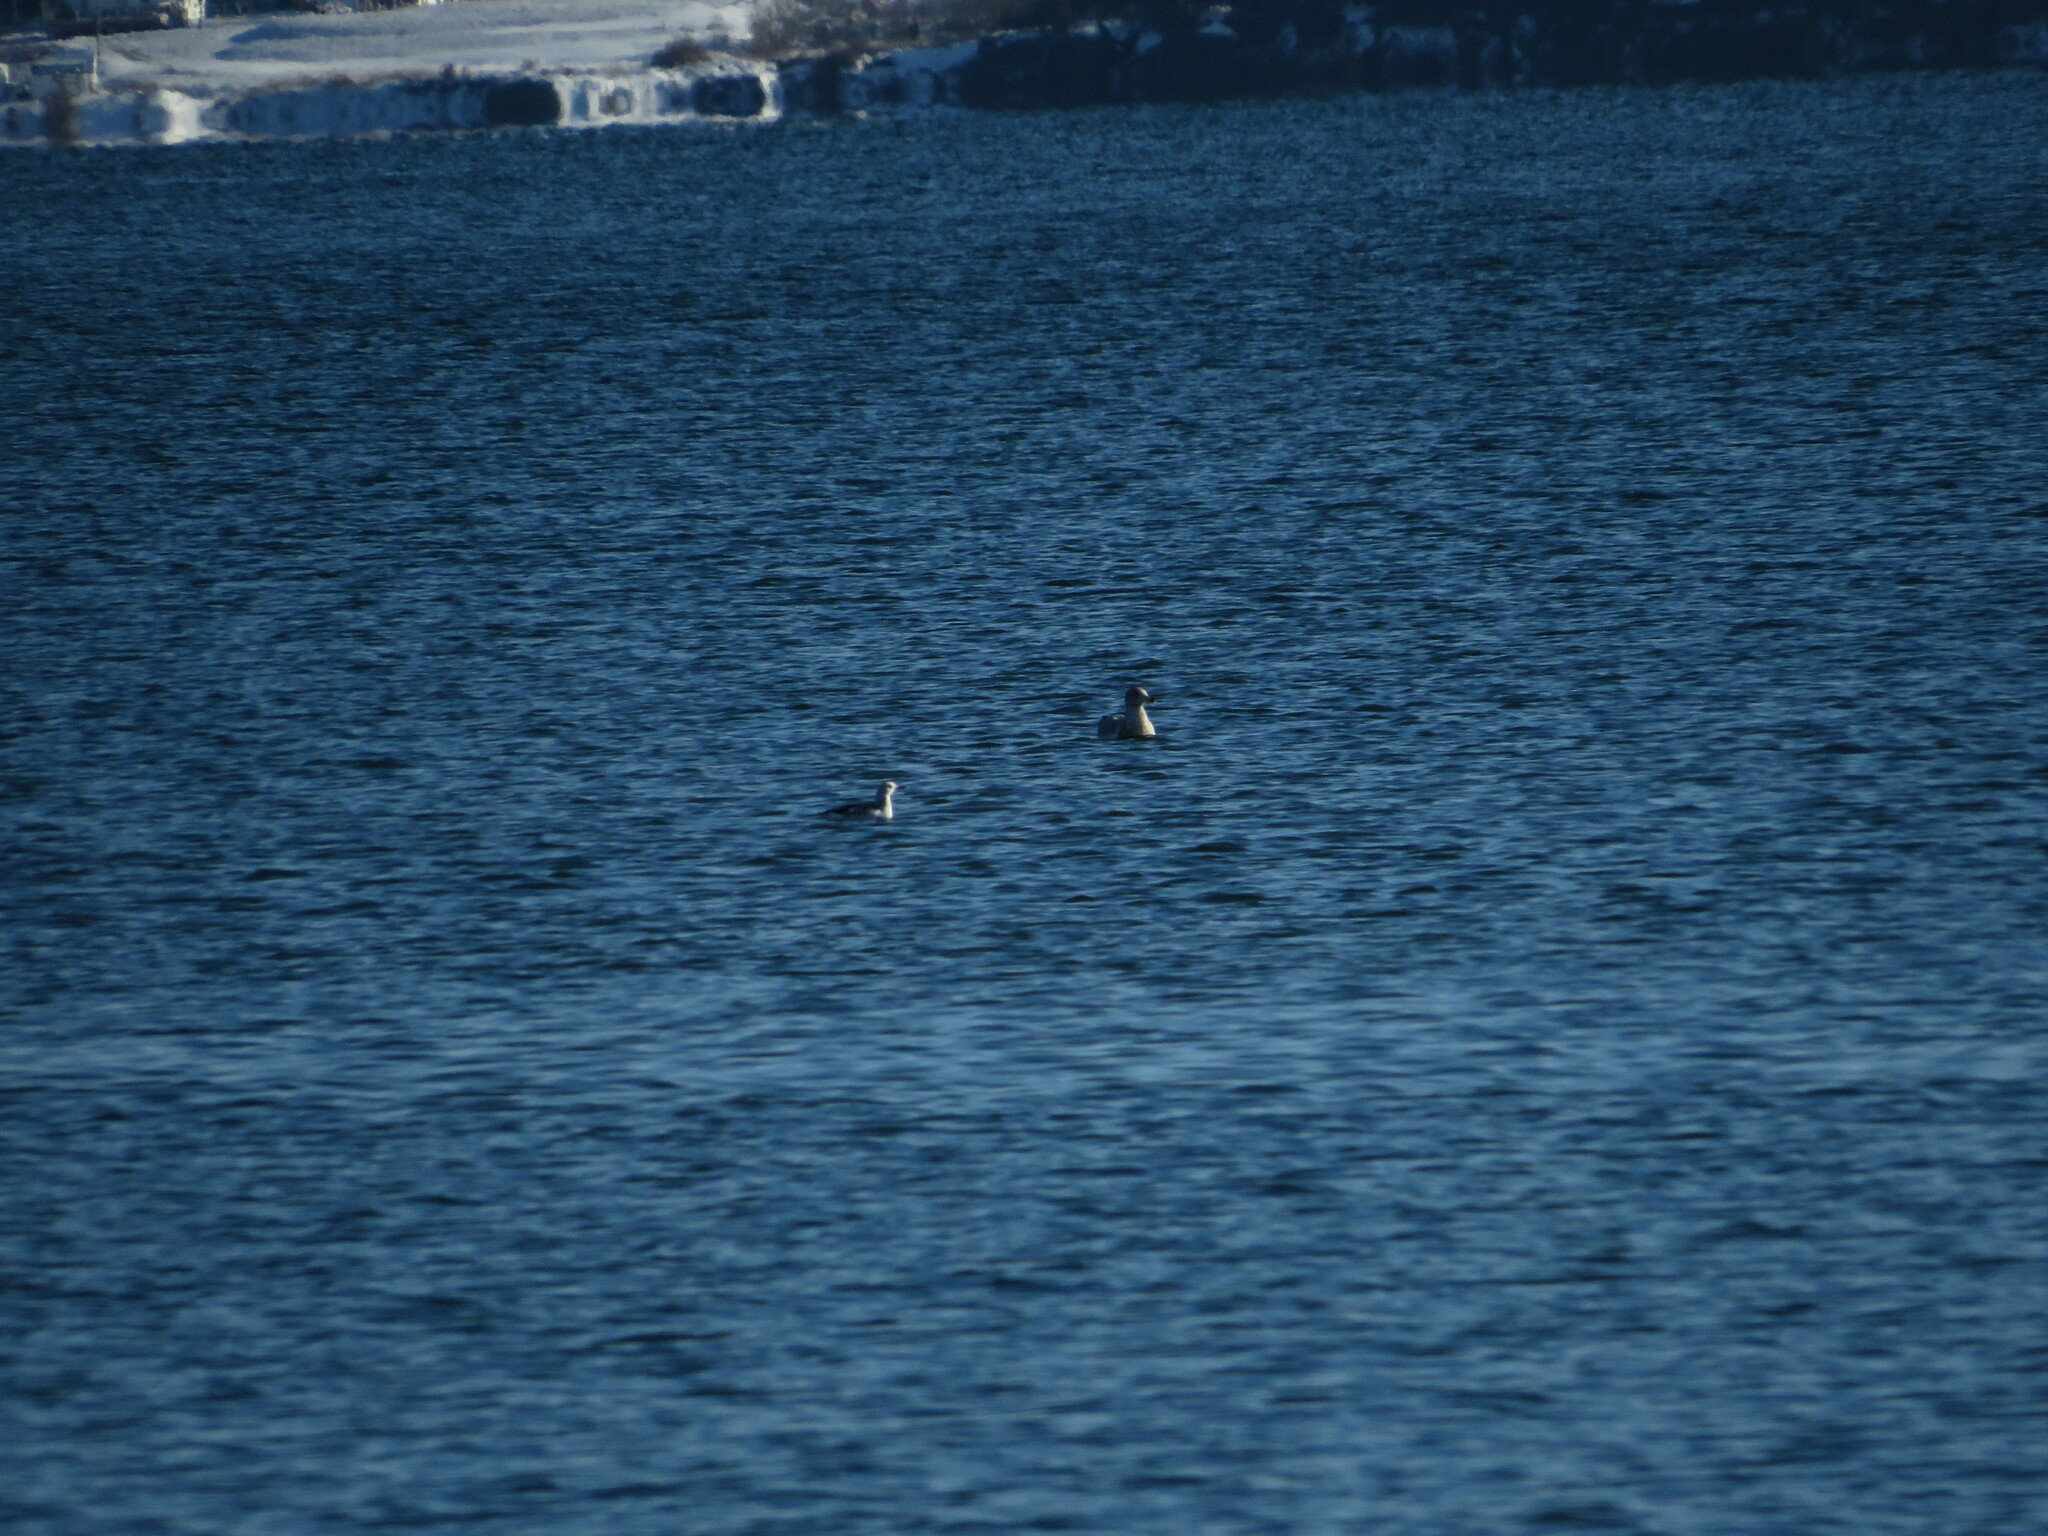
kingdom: Animalia
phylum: Chordata
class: Aves
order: Charadriiformes
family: Laridae
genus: Larus
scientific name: Larus argentatus
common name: Herring gull
